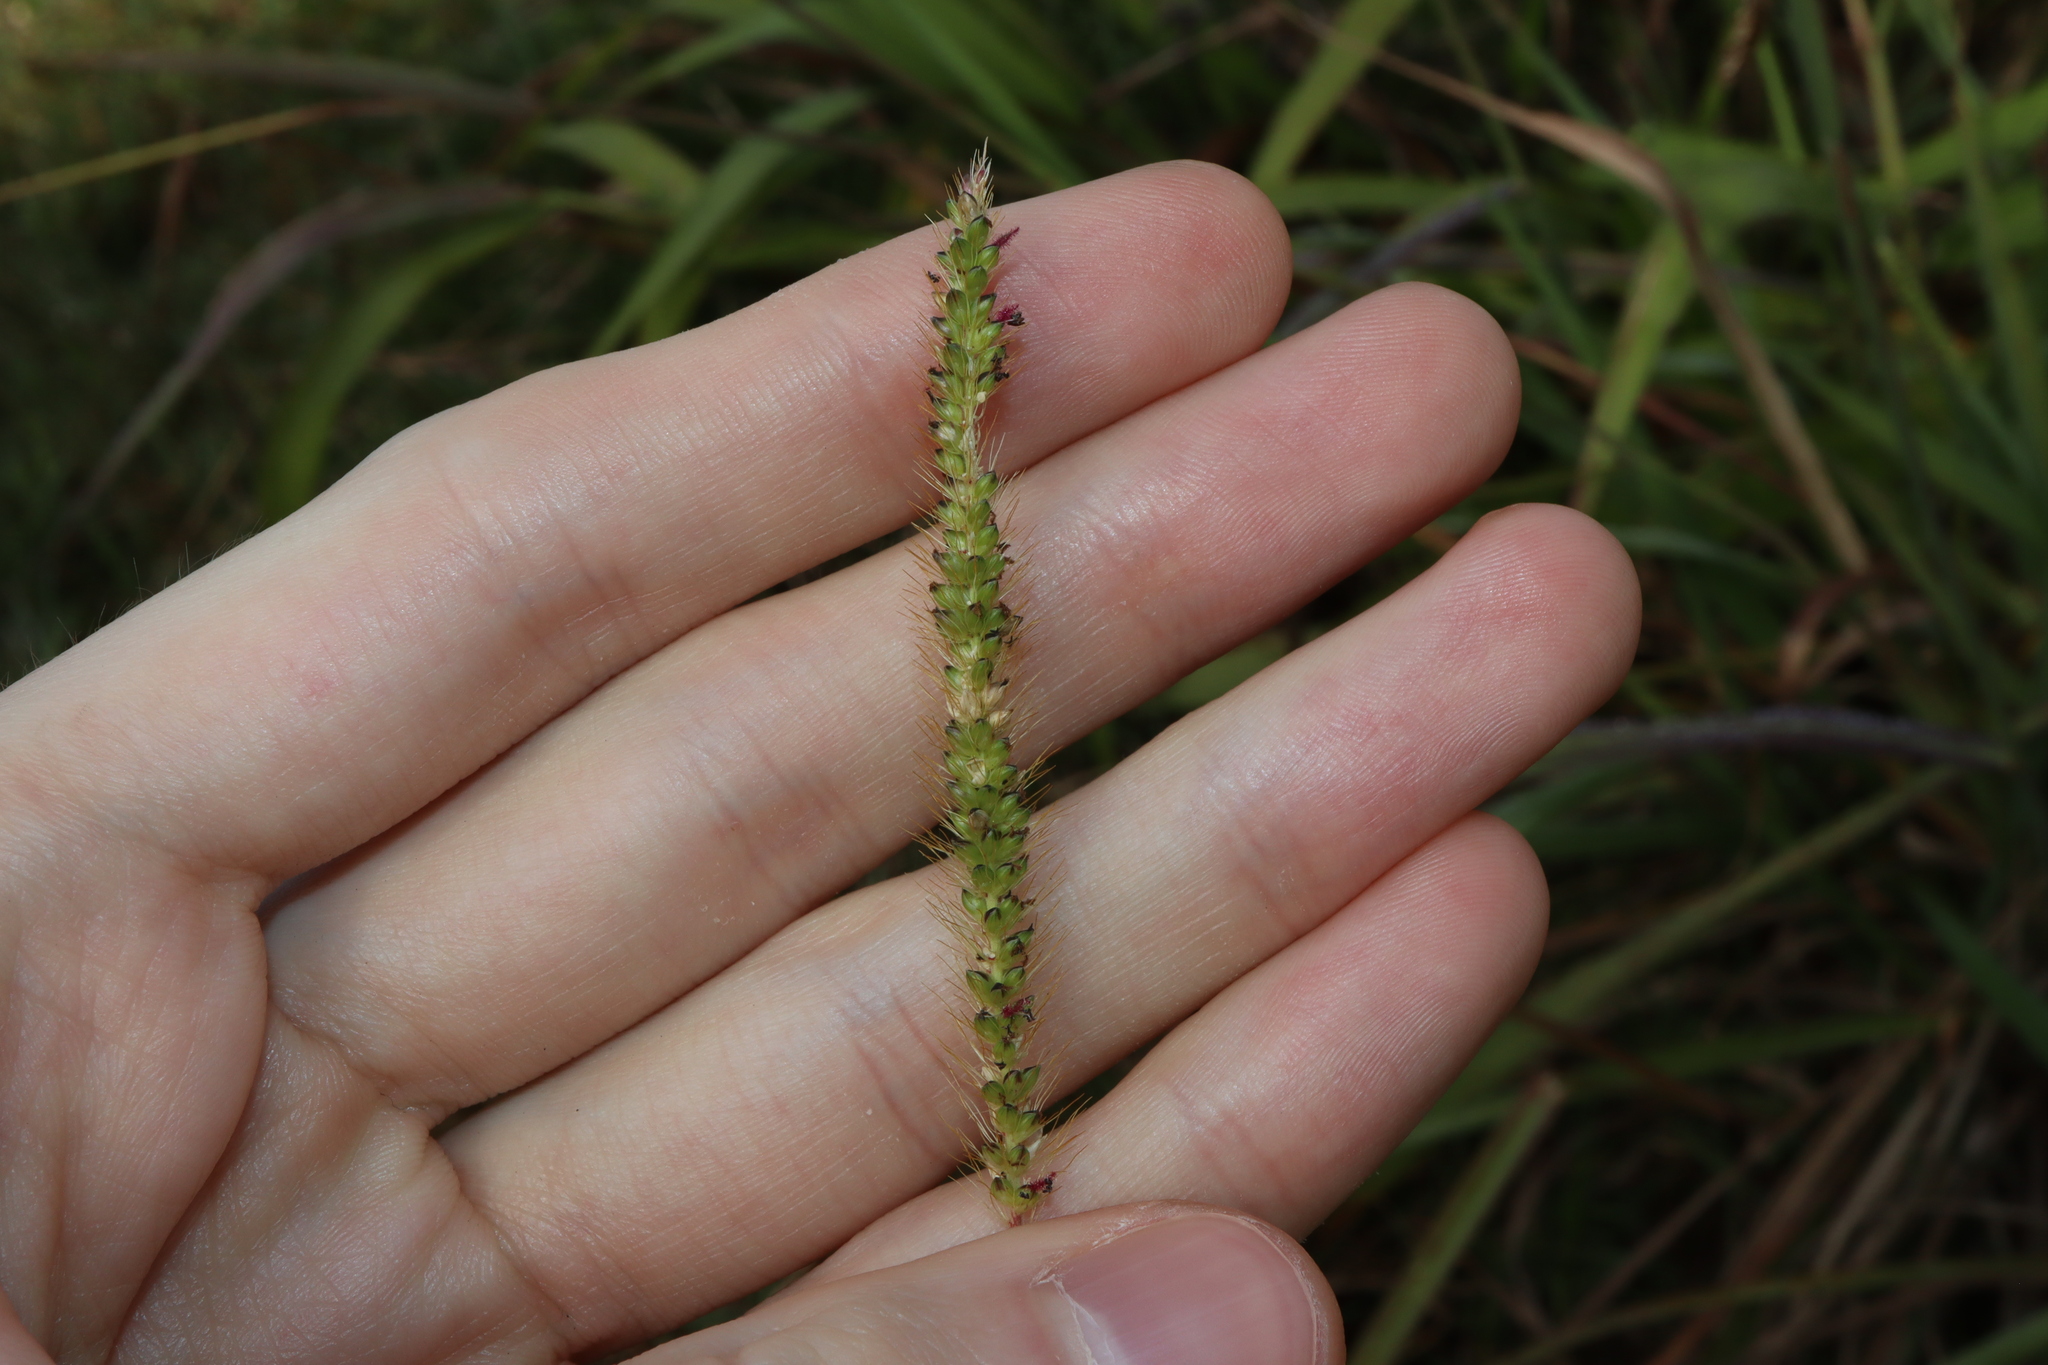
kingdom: Plantae
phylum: Tracheophyta
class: Liliopsida
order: Poales
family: Poaceae
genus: Setaria
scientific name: Setaria parviflora
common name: Knotroot bristle-grass
